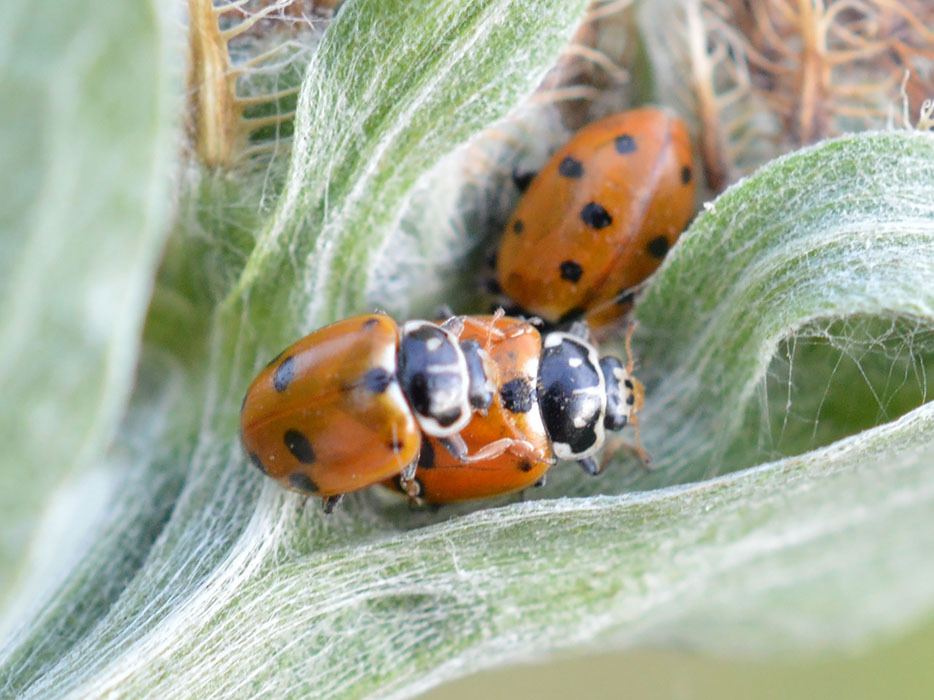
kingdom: Animalia
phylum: Arthropoda
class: Insecta
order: Coleoptera
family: Coccinellidae
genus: Hippodamia
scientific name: Hippodamia variegata
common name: Ladybird beetle
